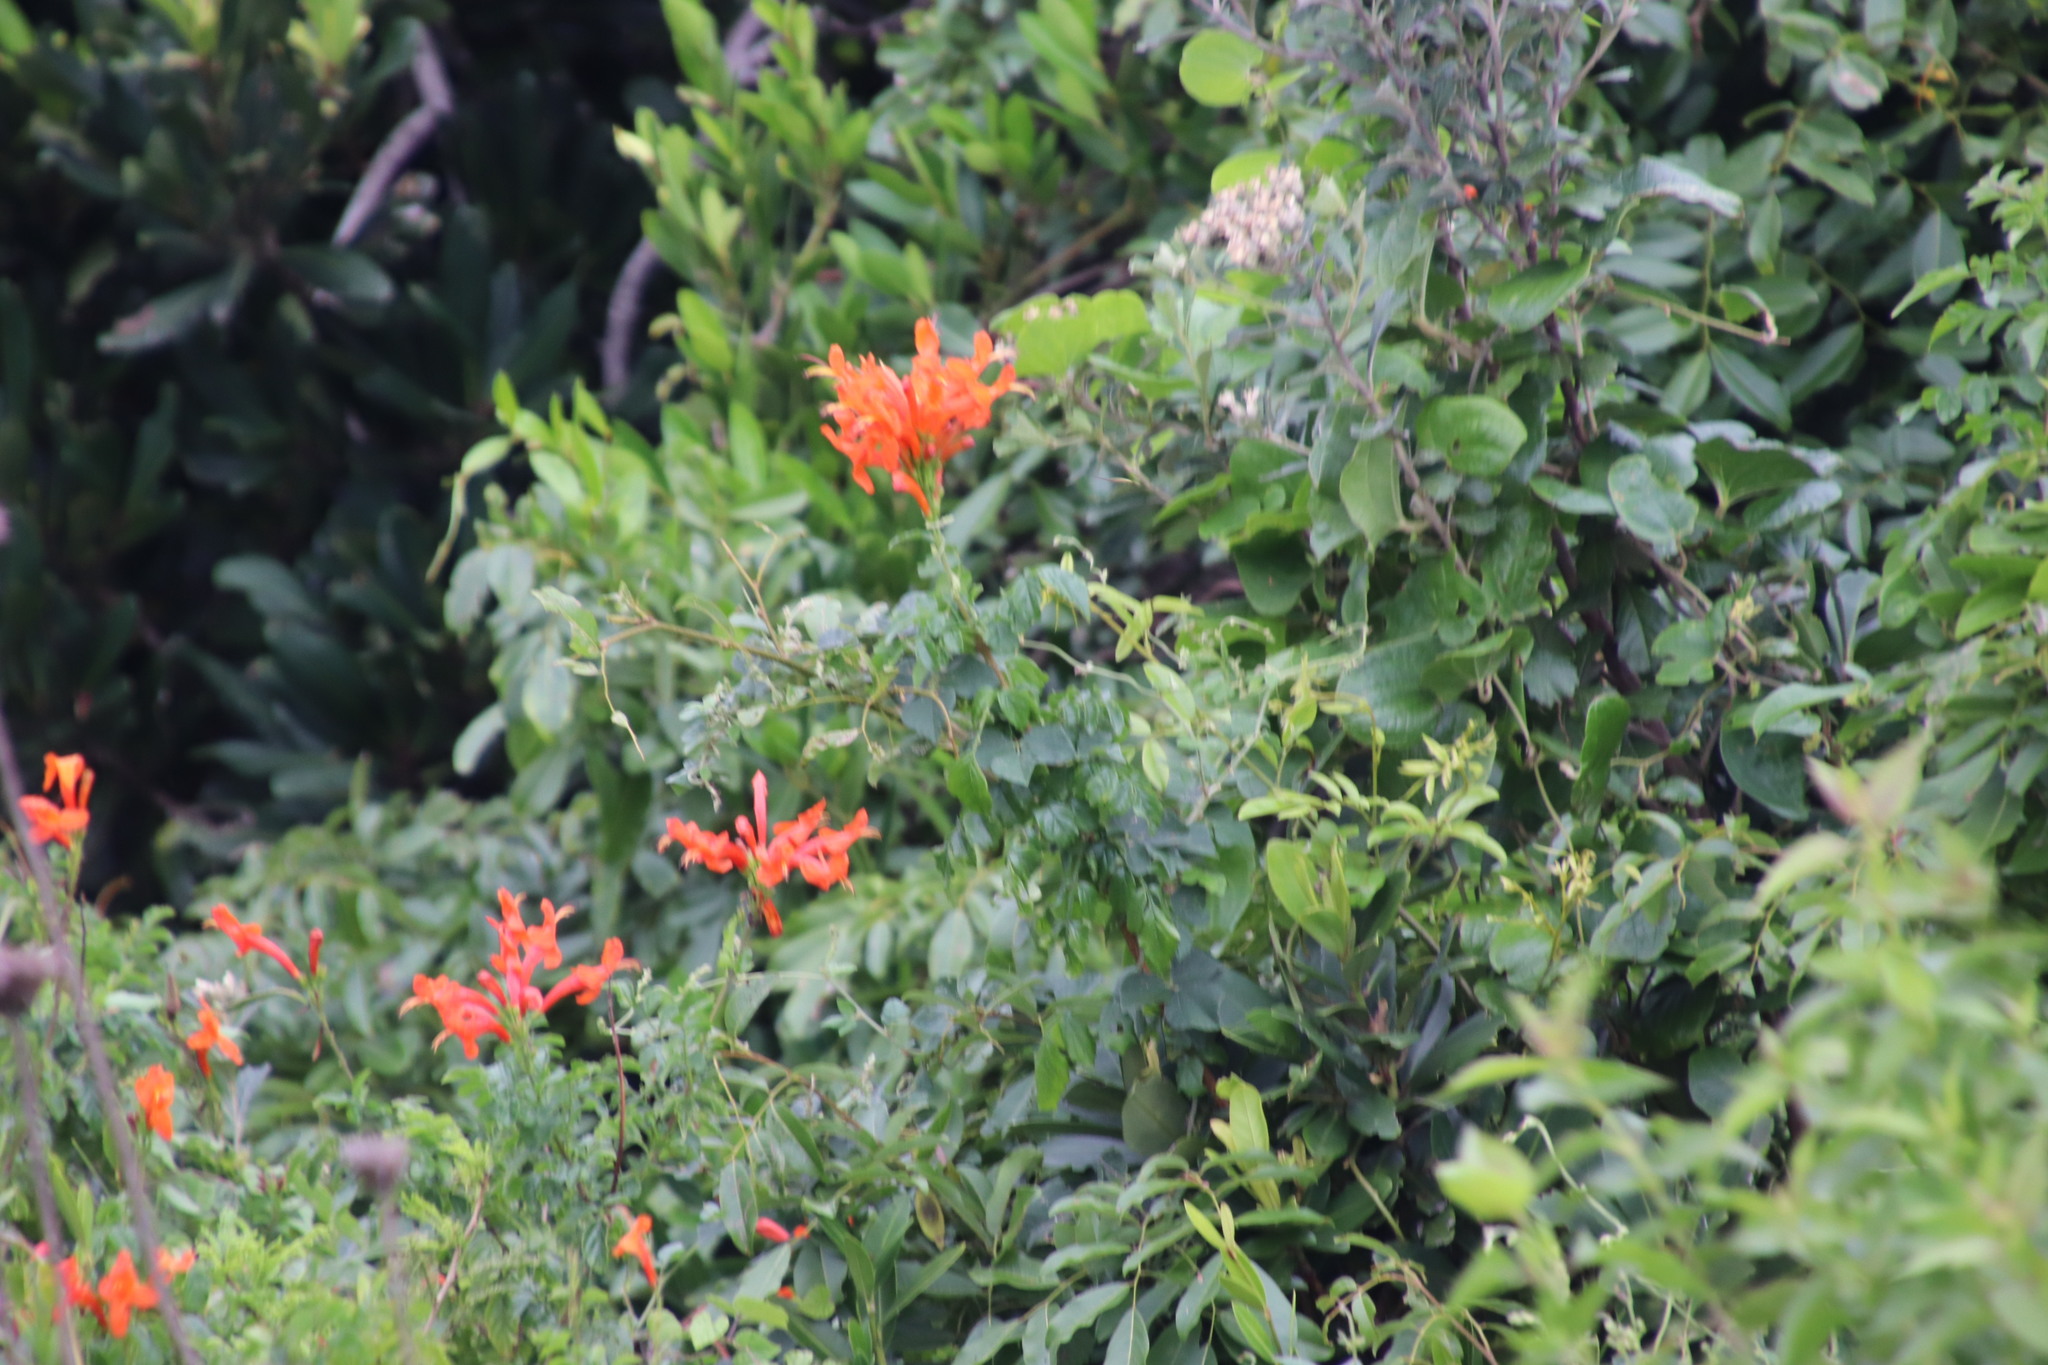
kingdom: Plantae
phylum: Tracheophyta
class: Magnoliopsida
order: Lamiales
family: Bignoniaceae
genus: Tecomaria
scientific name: Tecomaria capensis
